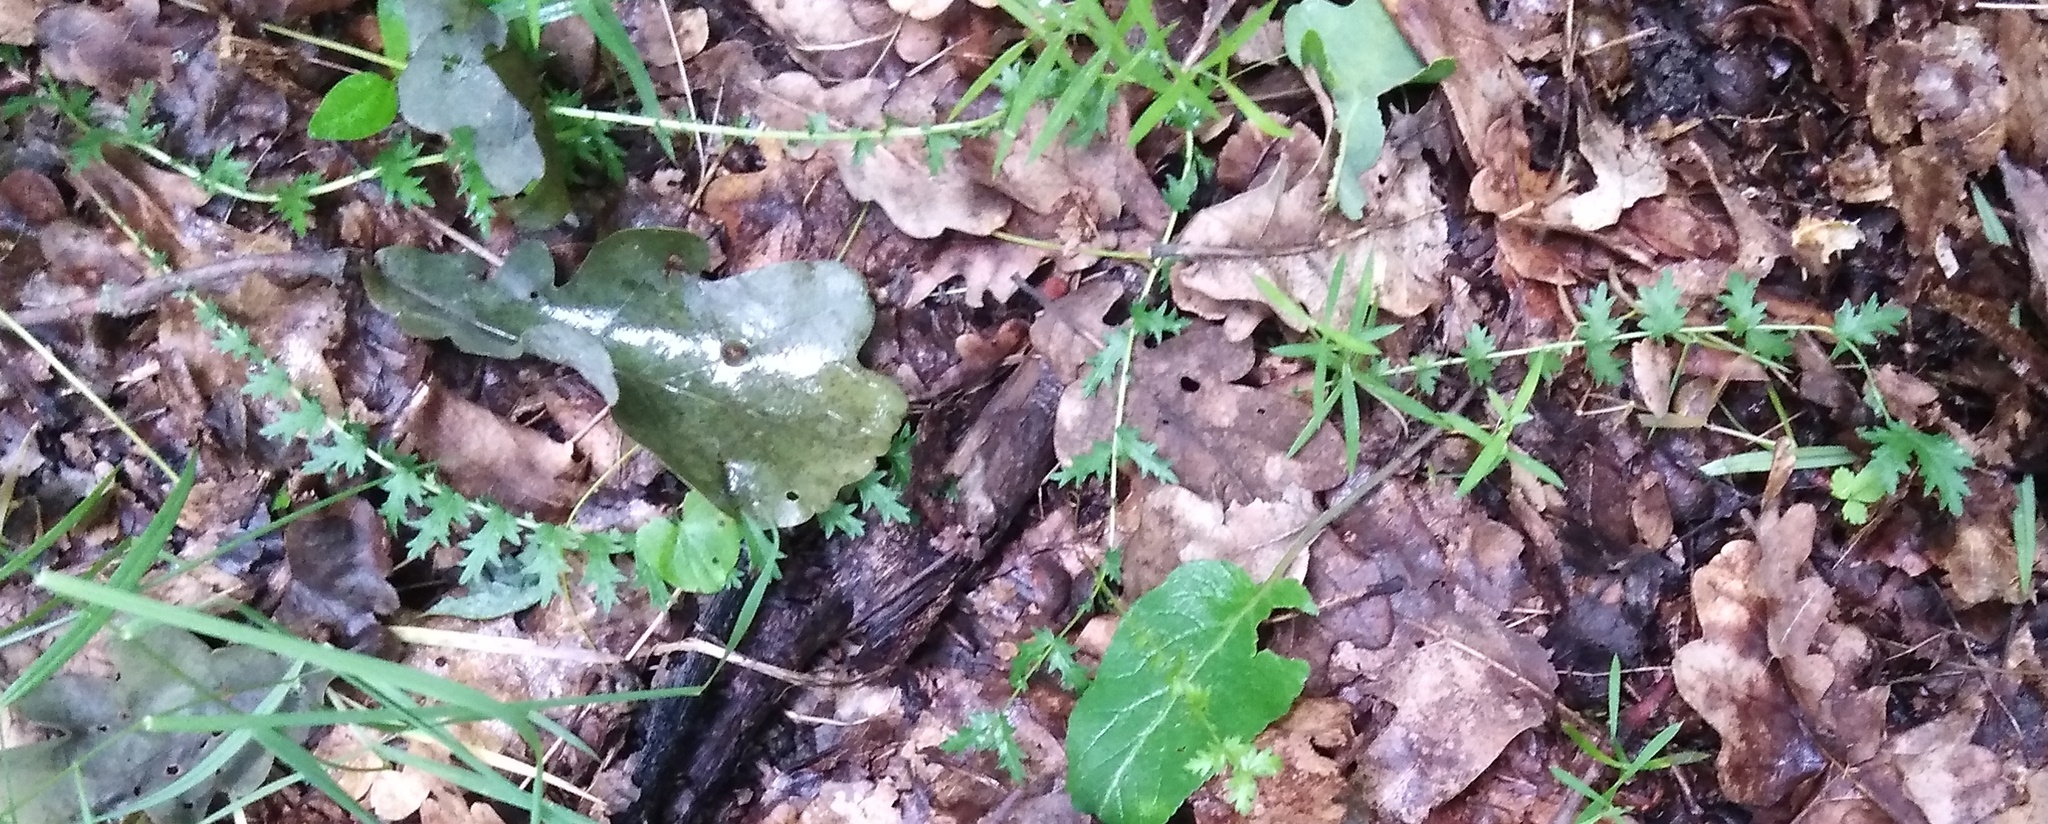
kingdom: Plantae
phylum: Tracheophyta
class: Magnoliopsida
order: Rosales
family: Rosaceae
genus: Filipendula
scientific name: Filipendula vulgaris
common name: Dropwort
